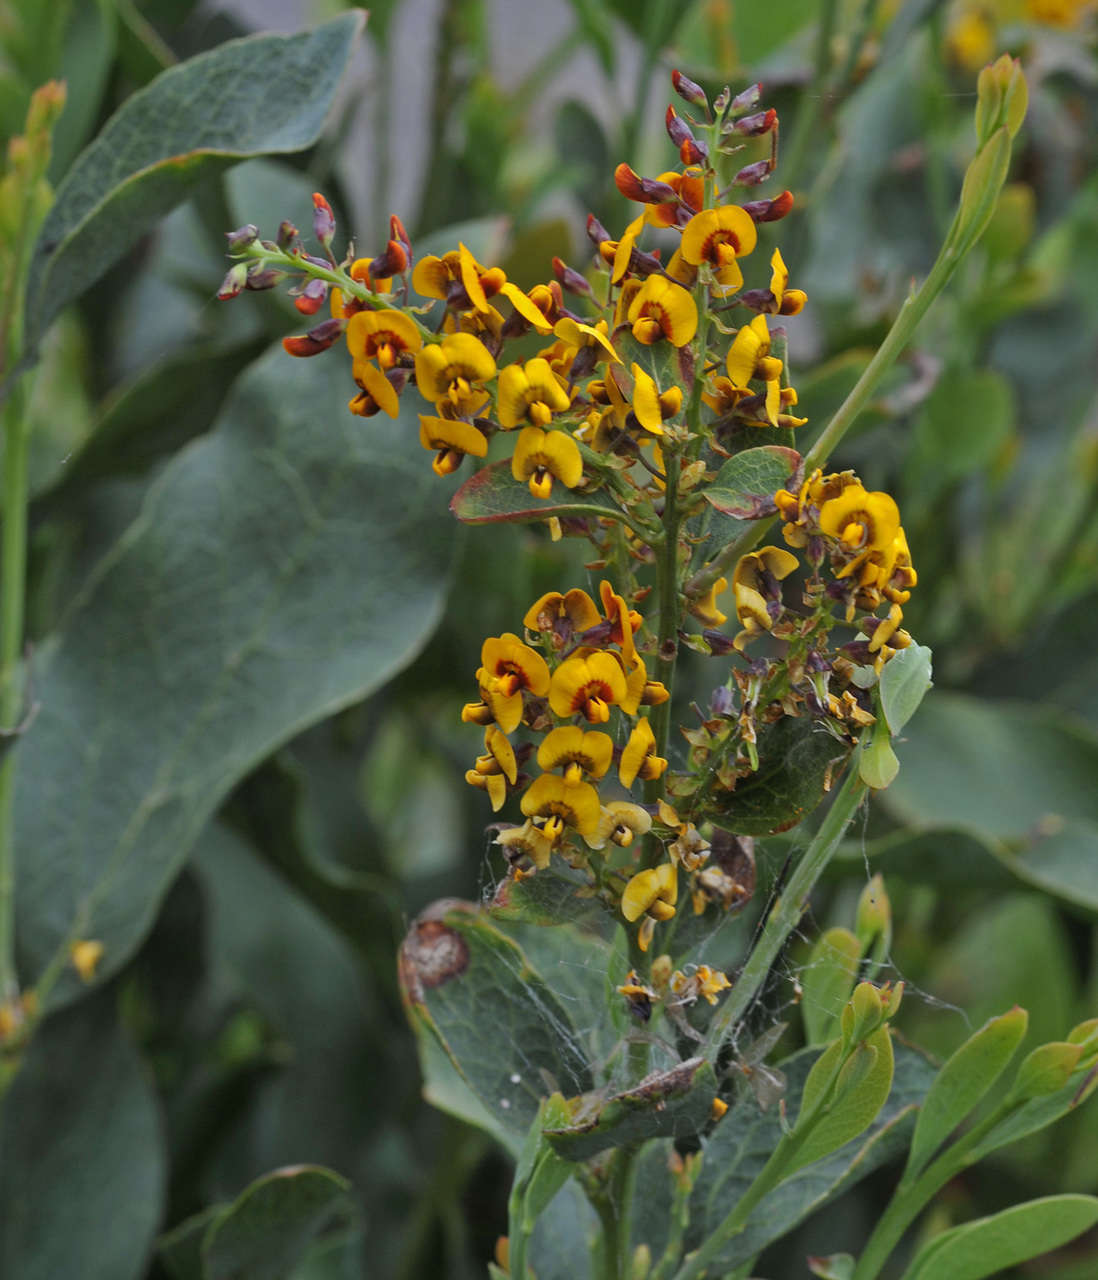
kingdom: Plantae
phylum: Tracheophyta
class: Magnoliopsida
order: Fabales
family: Fabaceae
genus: Daviesia
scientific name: Daviesia latifolia
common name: Hop bitter-pea
